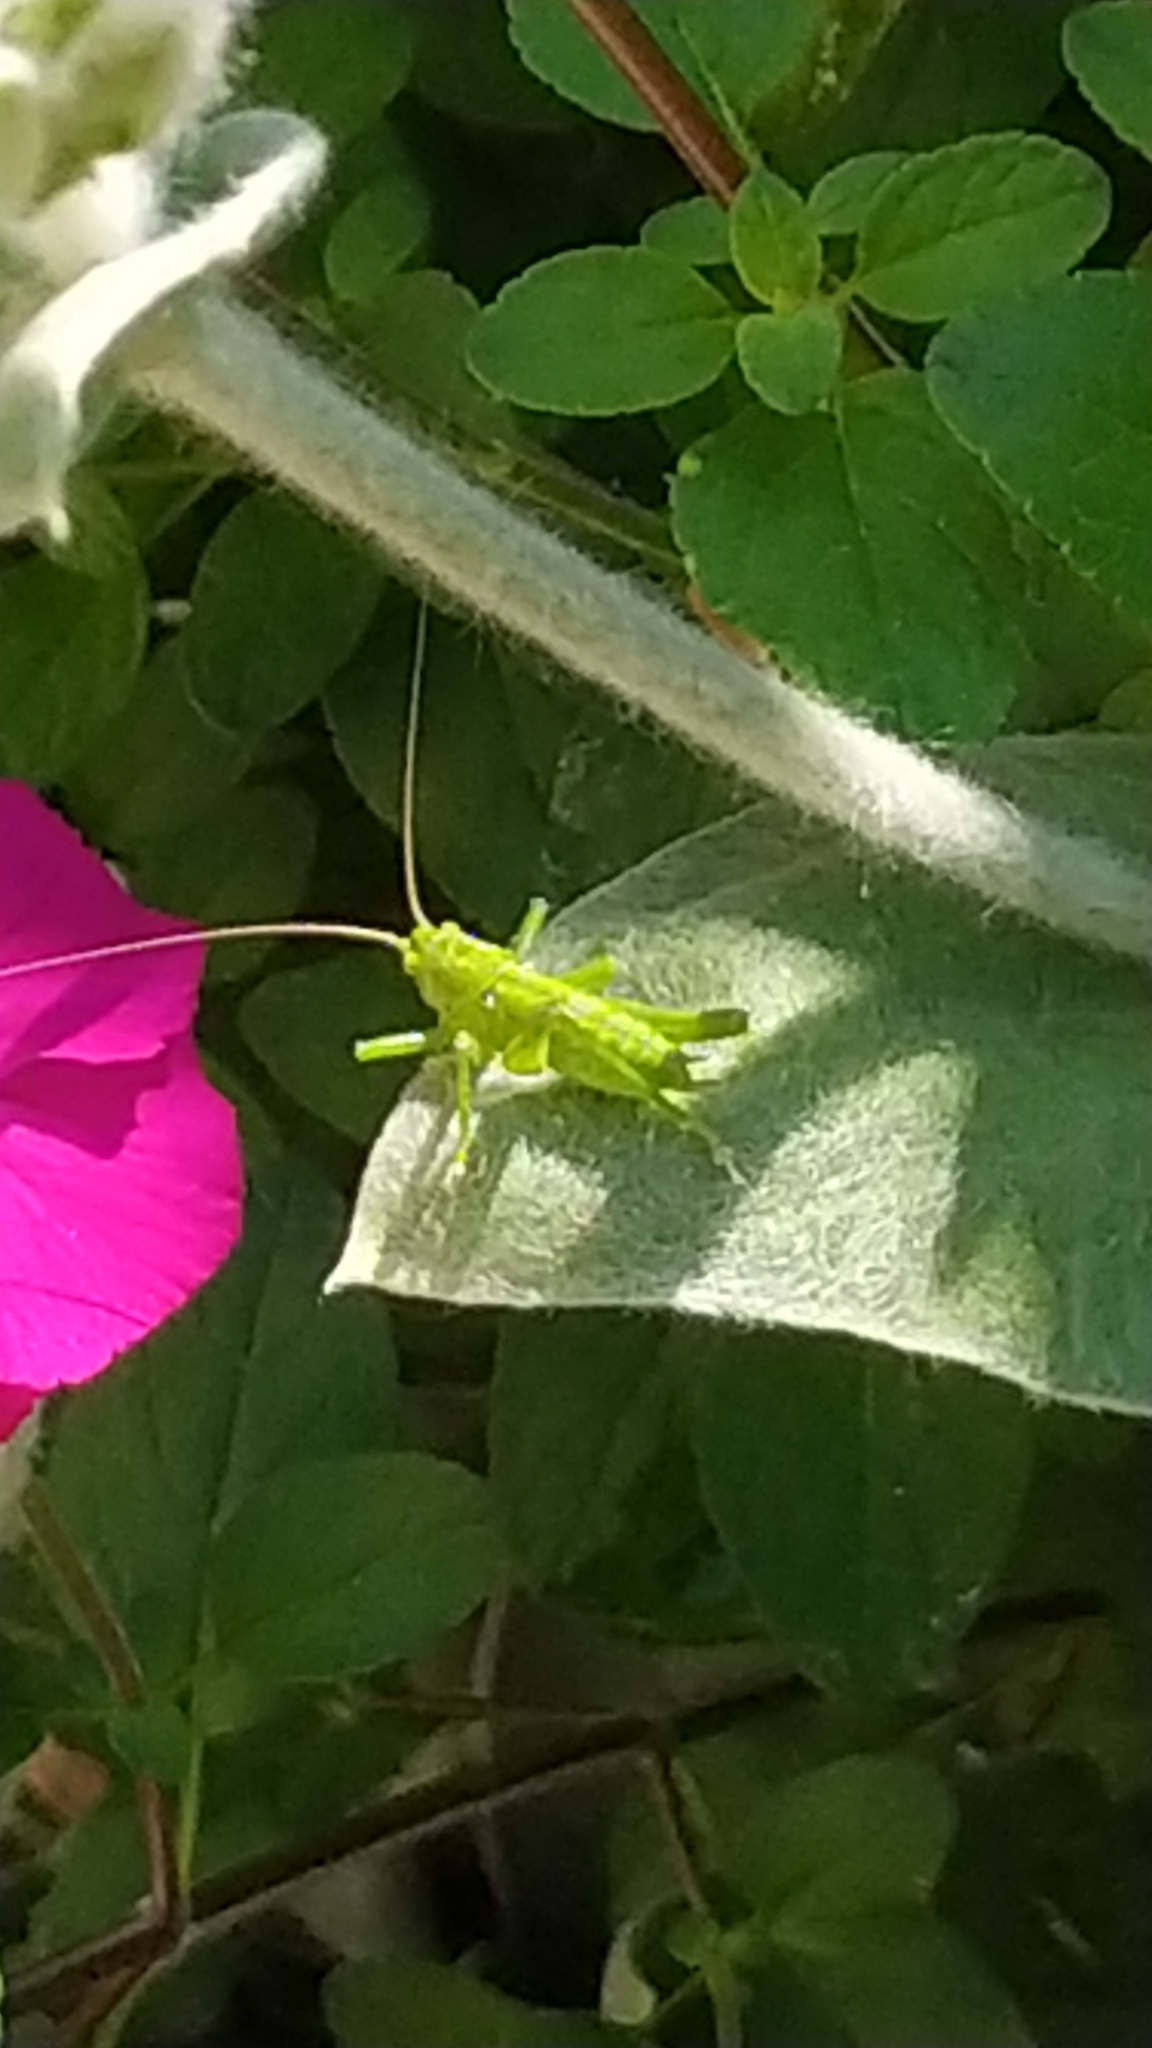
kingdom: Animalia
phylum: Arthropoda
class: Insecta
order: Orthoptera
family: Tettigoniidae
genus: Tettigonia
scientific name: Tettigonia viridissima
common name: Great green bush-cricket
